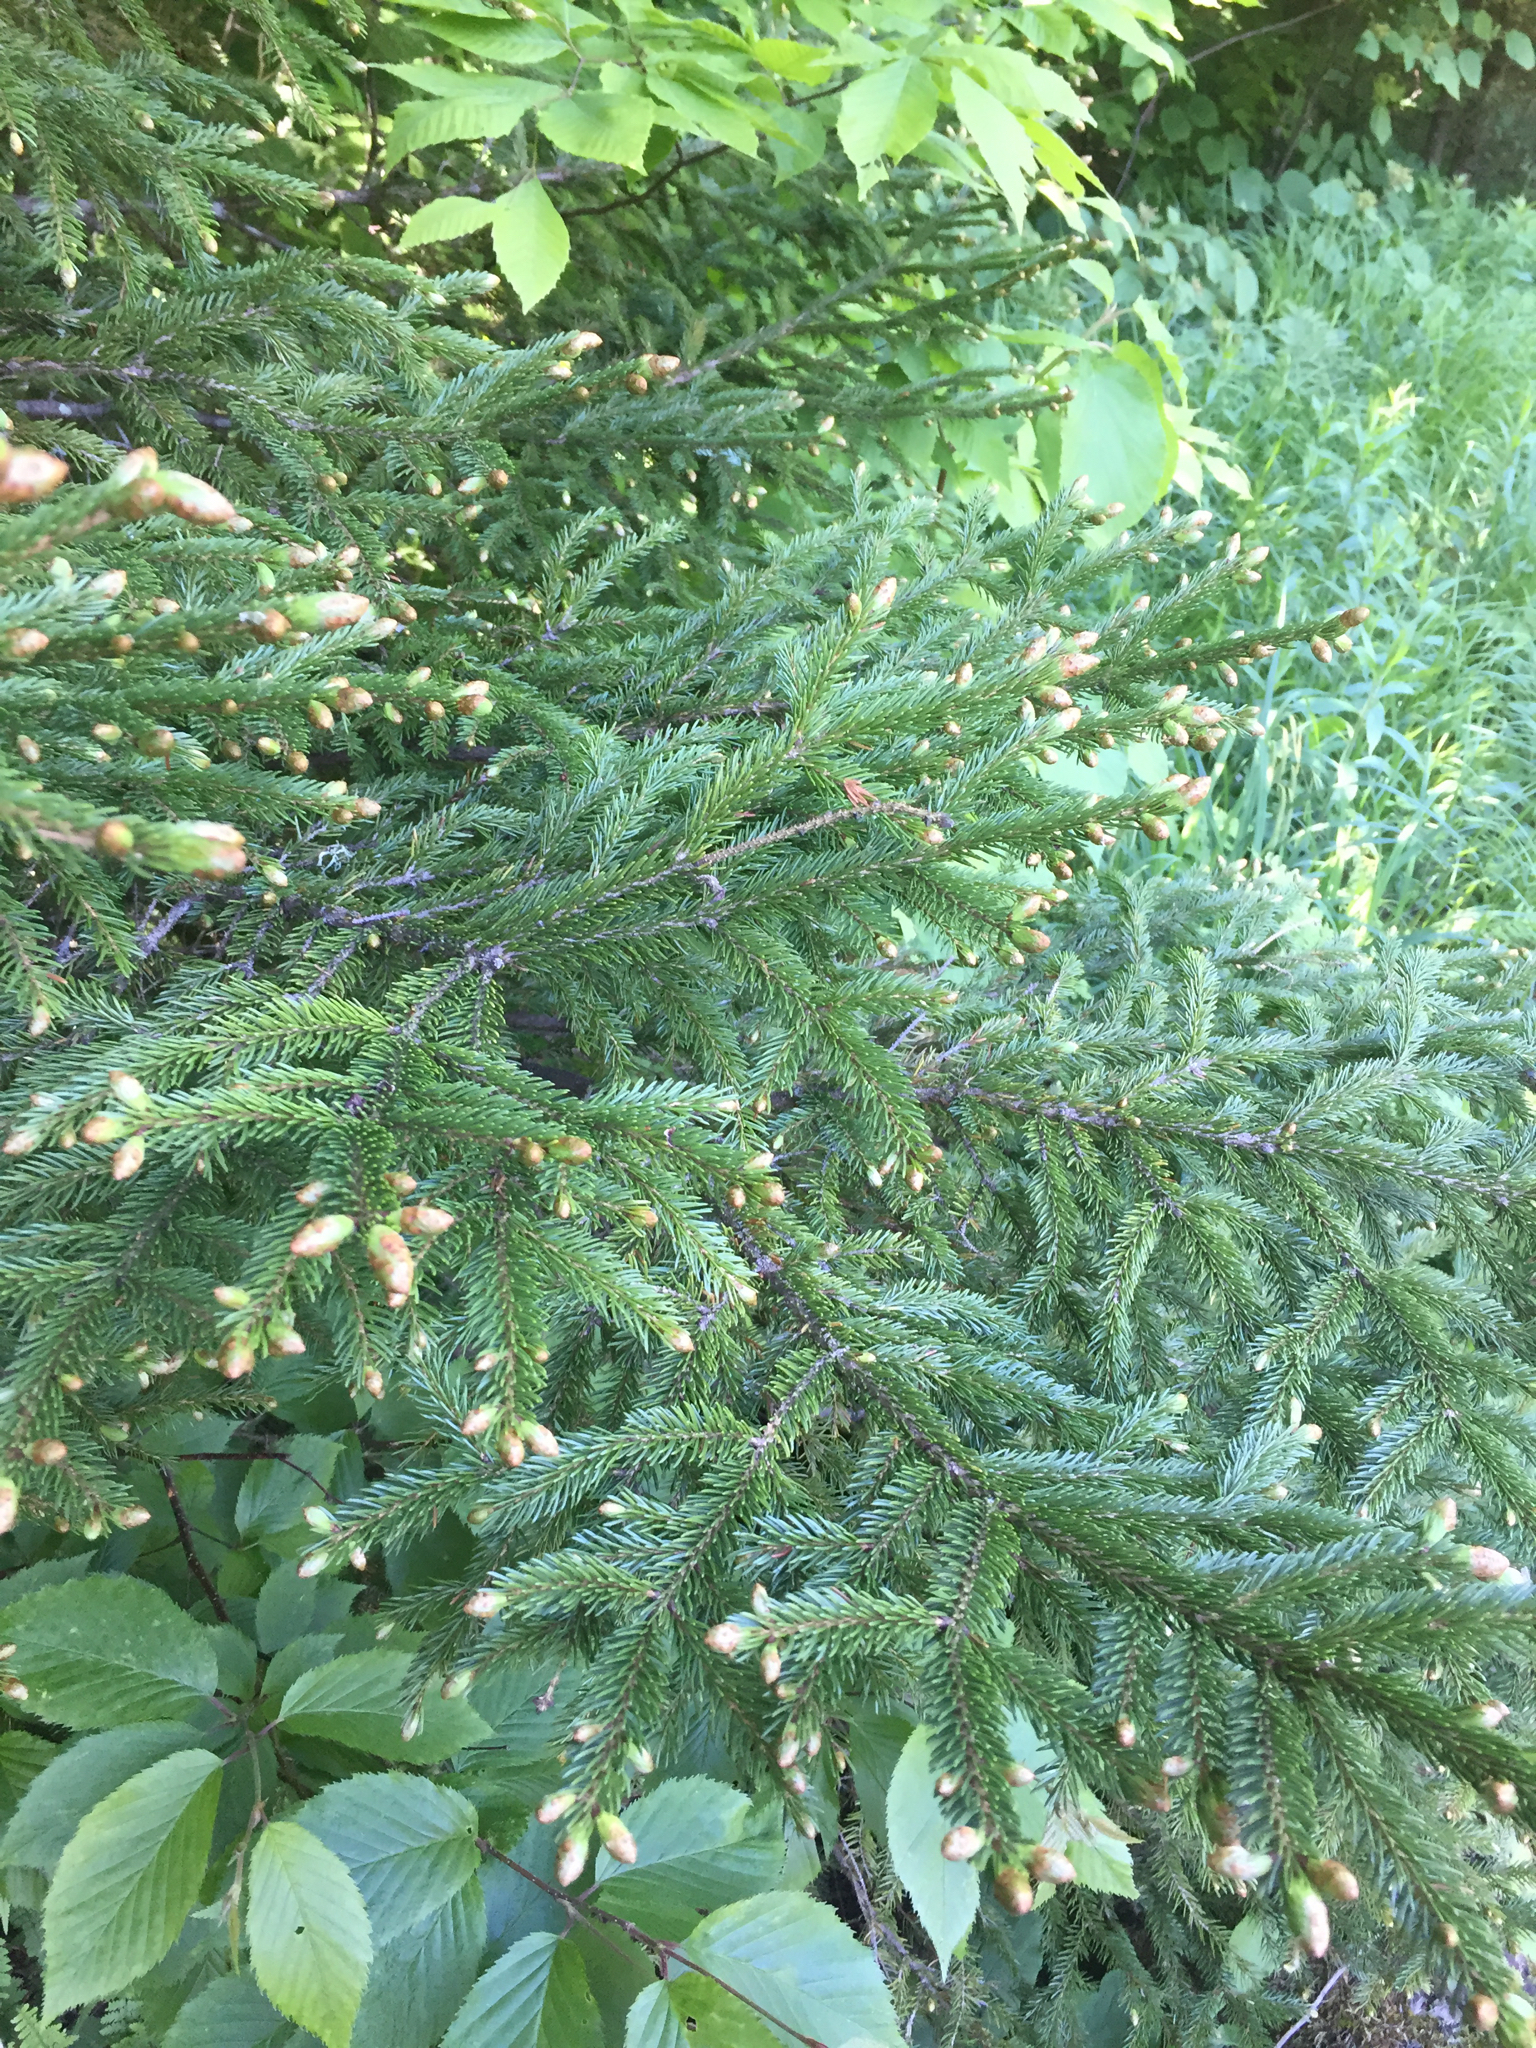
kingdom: Plantae
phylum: Tracheophyta
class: Pinopsida
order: Pinales
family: Pinaceae
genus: Picea
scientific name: Picea rubens
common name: Red spruce
